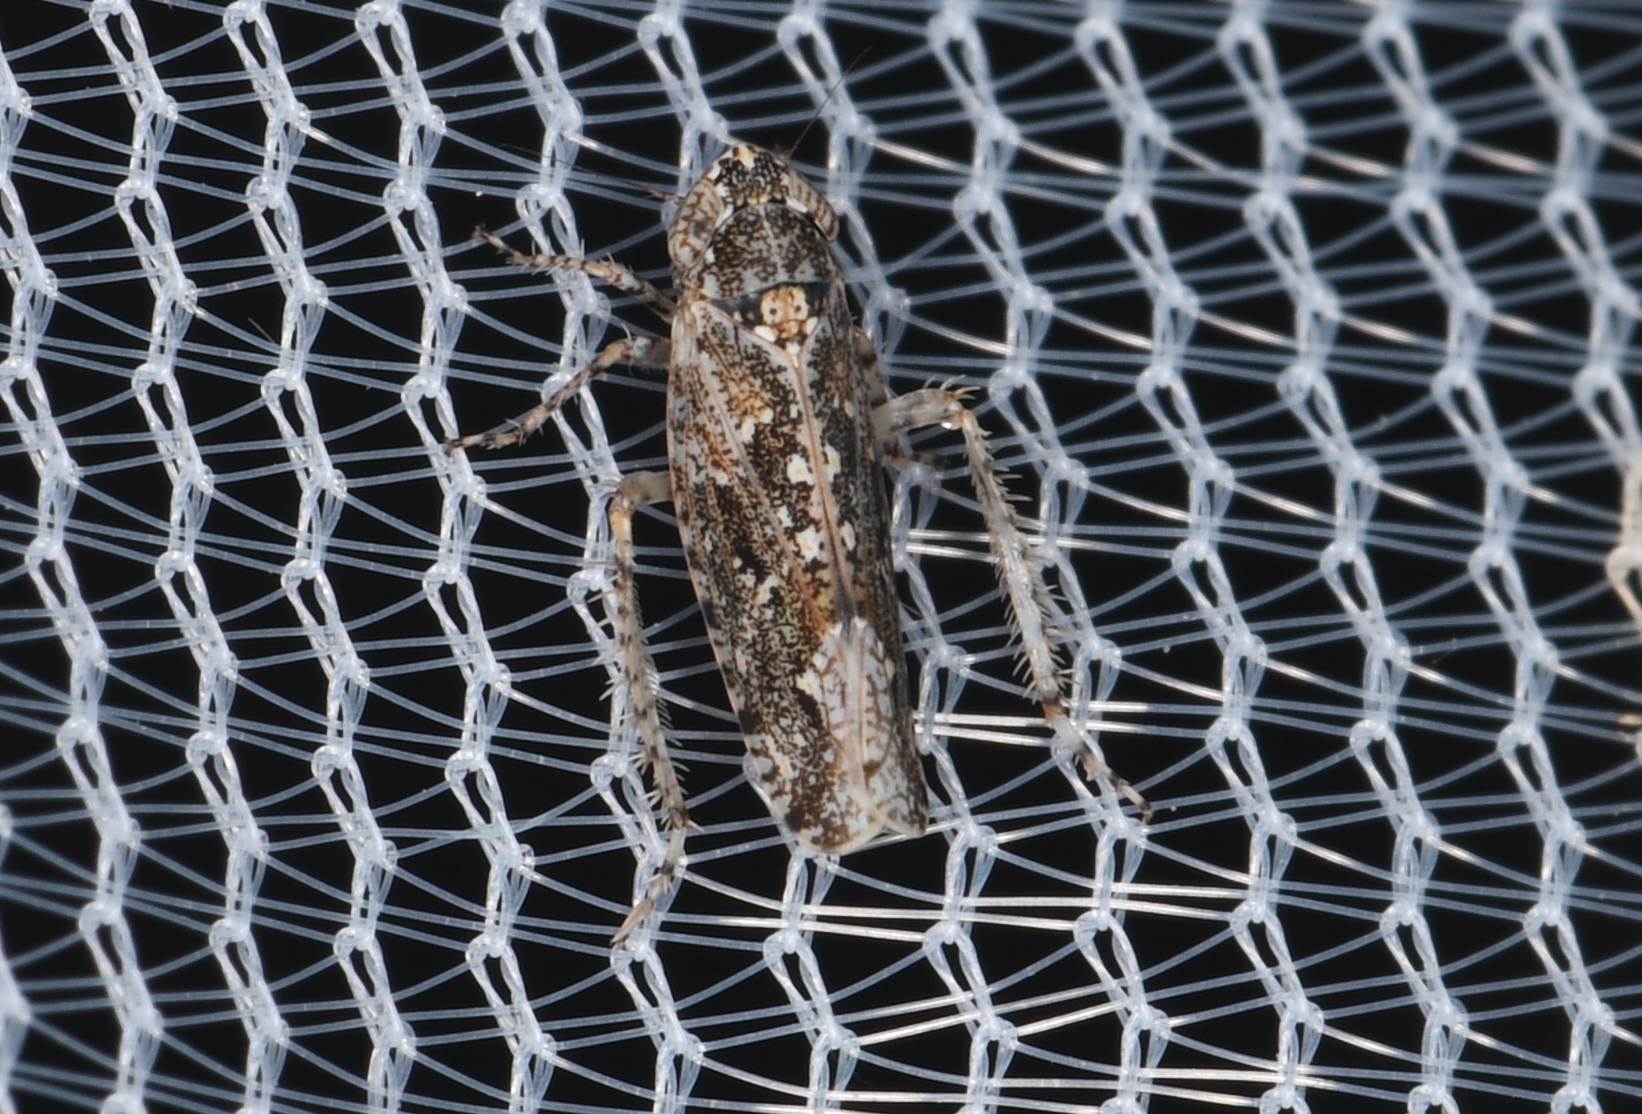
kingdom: Animalia
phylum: Arthropoda
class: Insecta
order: Hemiptera
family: Cicadellidae
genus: Dixianus
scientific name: Dixianus utahnus
